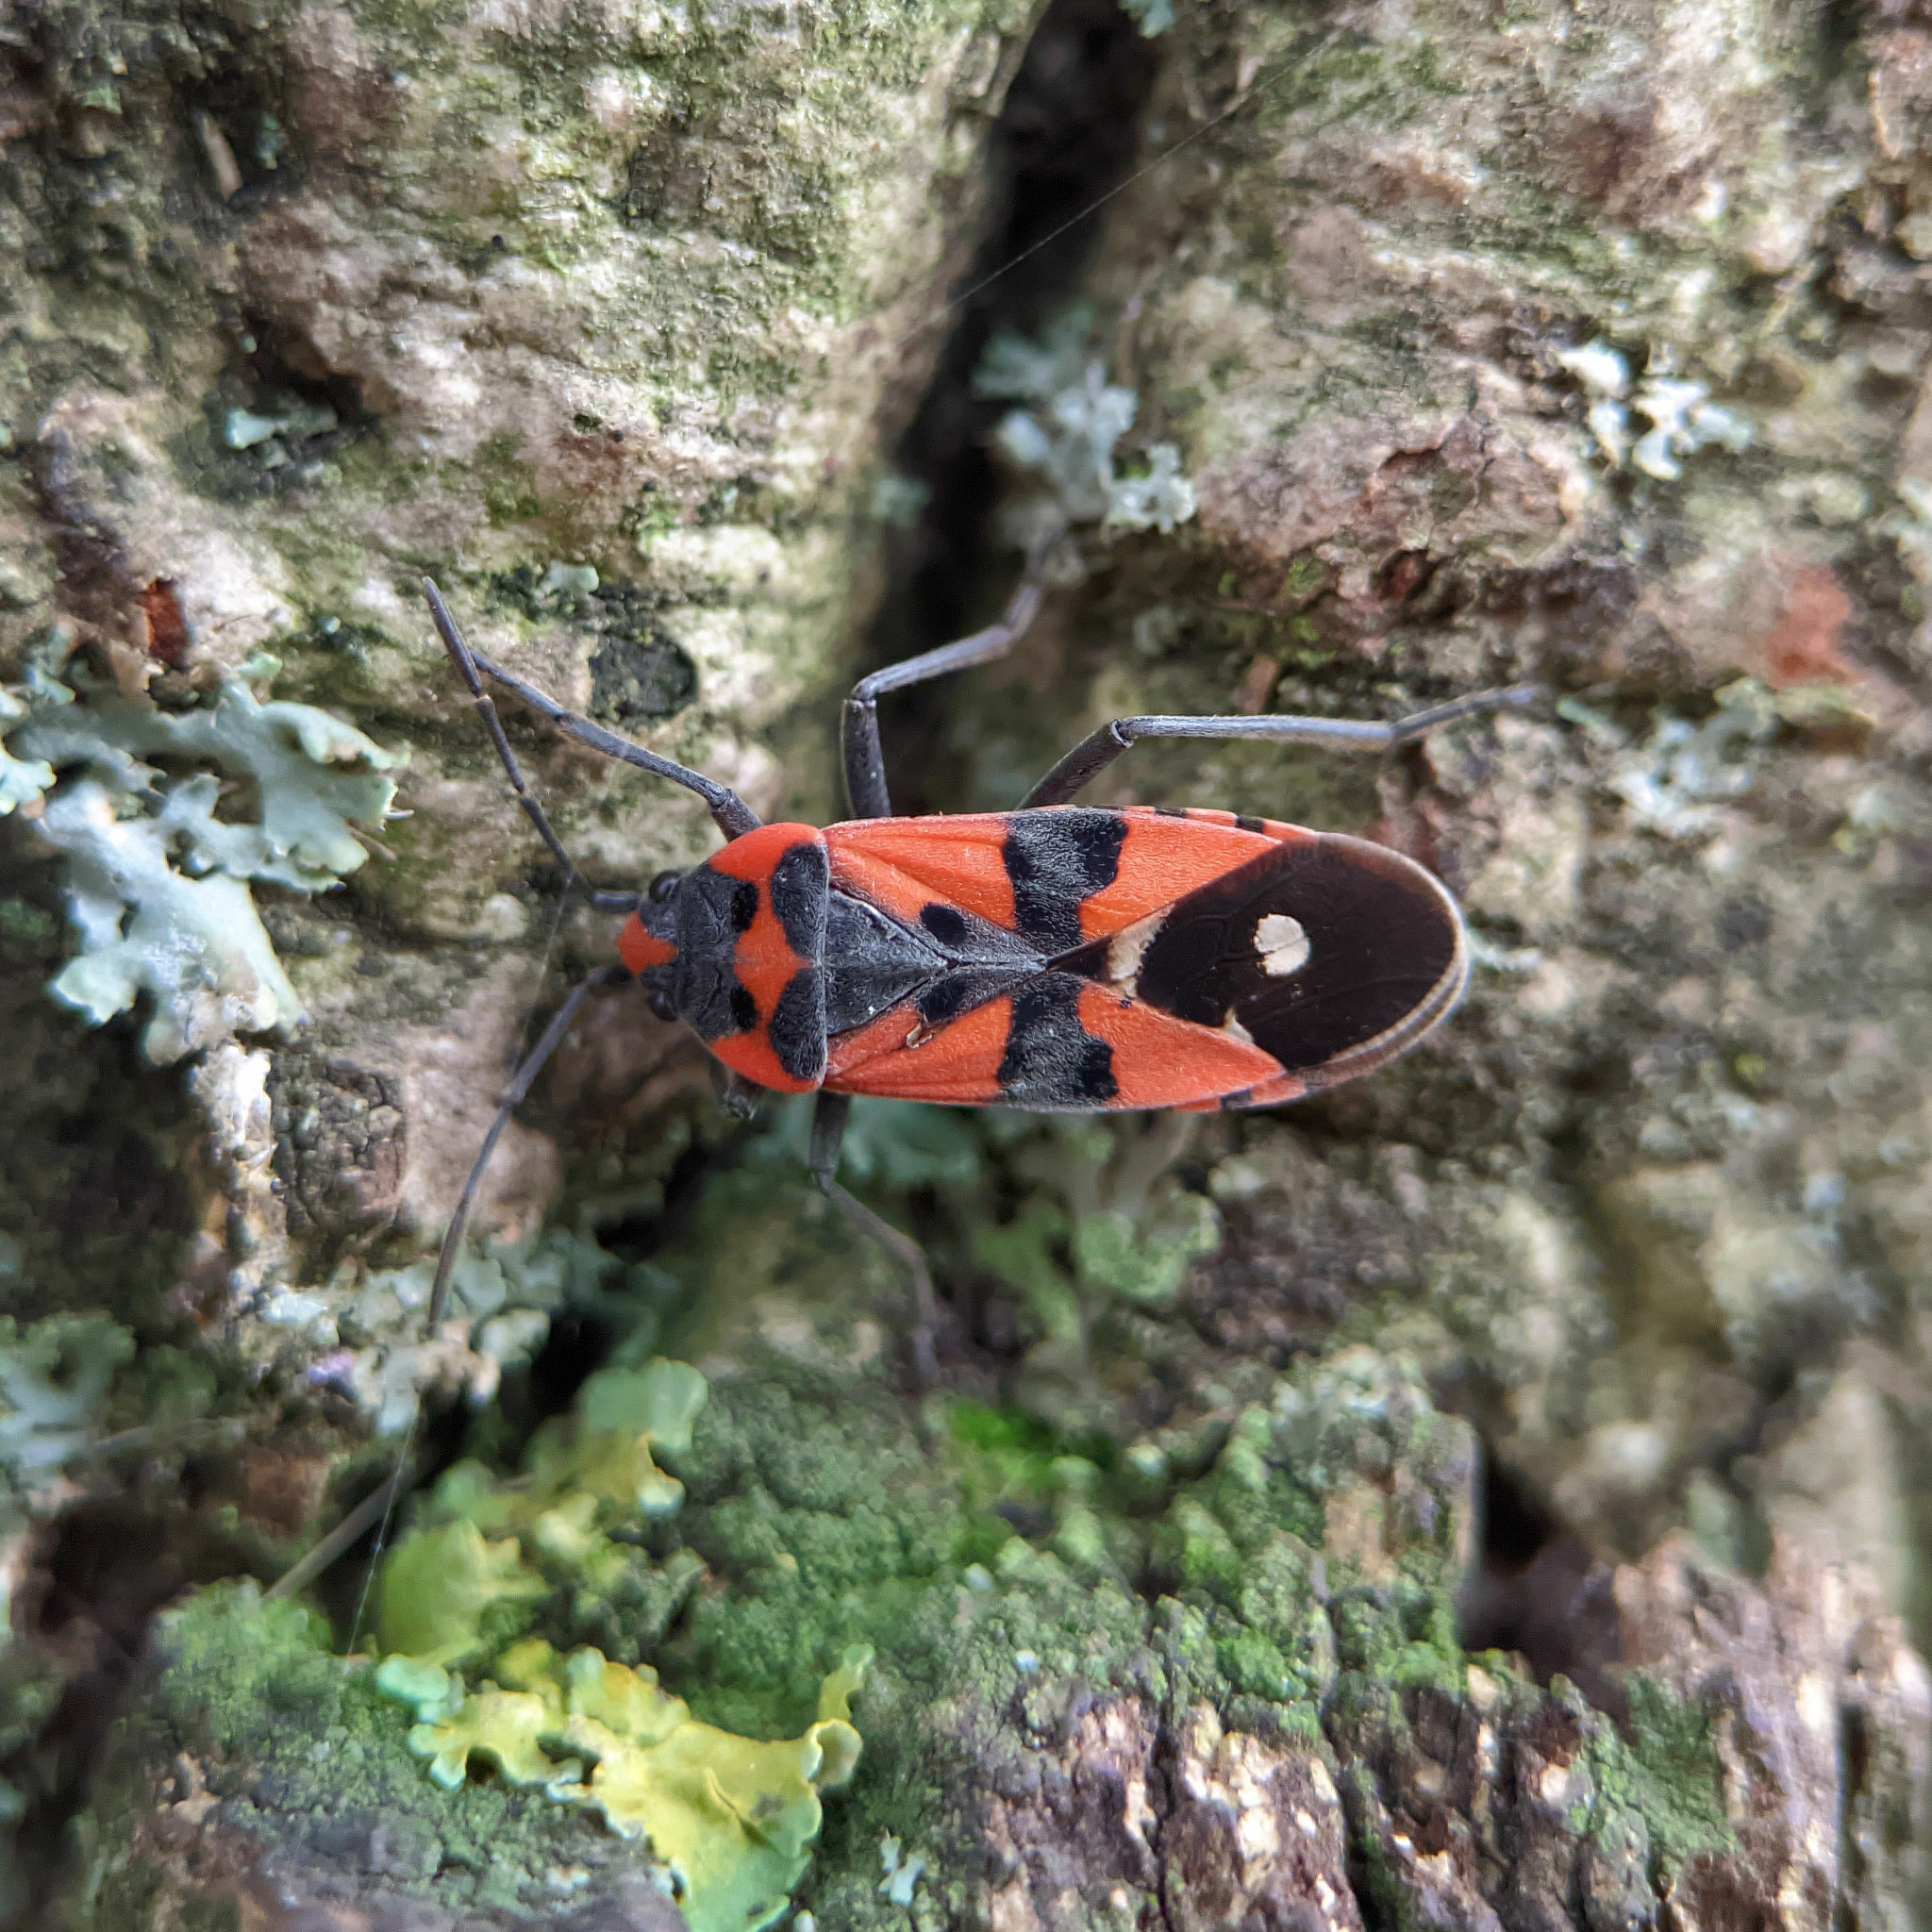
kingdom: Animalia
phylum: Arthropoda
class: Insecta
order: Hemiptera
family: Lygaeidae
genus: Lygaeus
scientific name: Lygaeus
